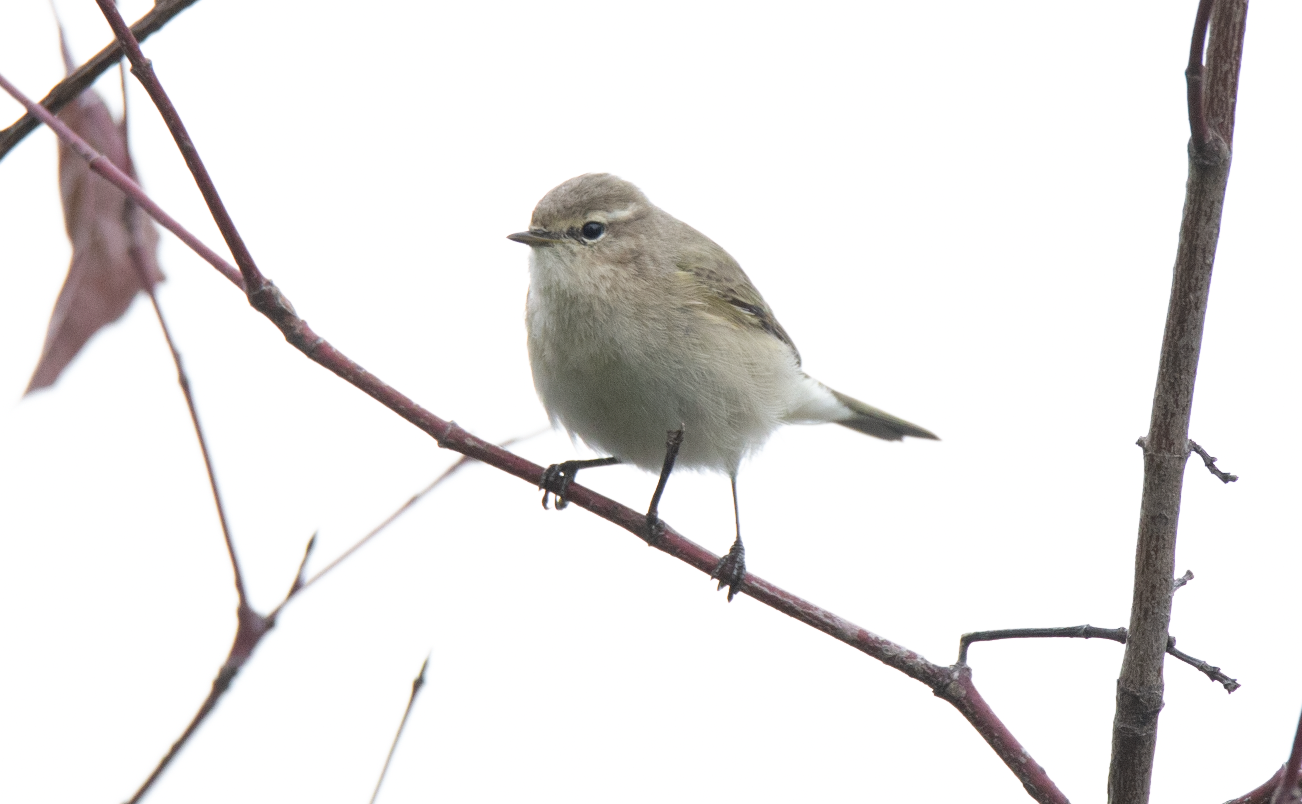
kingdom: Animalia
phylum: Chordata
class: Aves
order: Passeriformes
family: Phylloscopidae
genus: Phylloscopus
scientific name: Phylloscopus collybita
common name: Common chiffchaff
